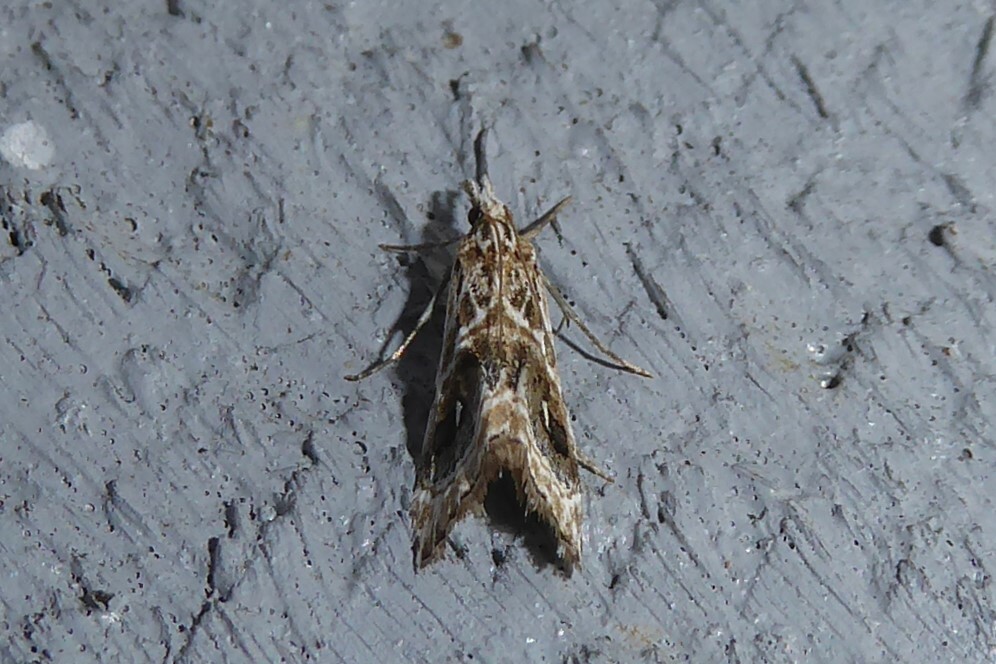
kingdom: Animalia
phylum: Arthropoda
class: Insecta
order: Lepidoptera
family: Crambidae
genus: Gadira
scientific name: Gadira acerella
